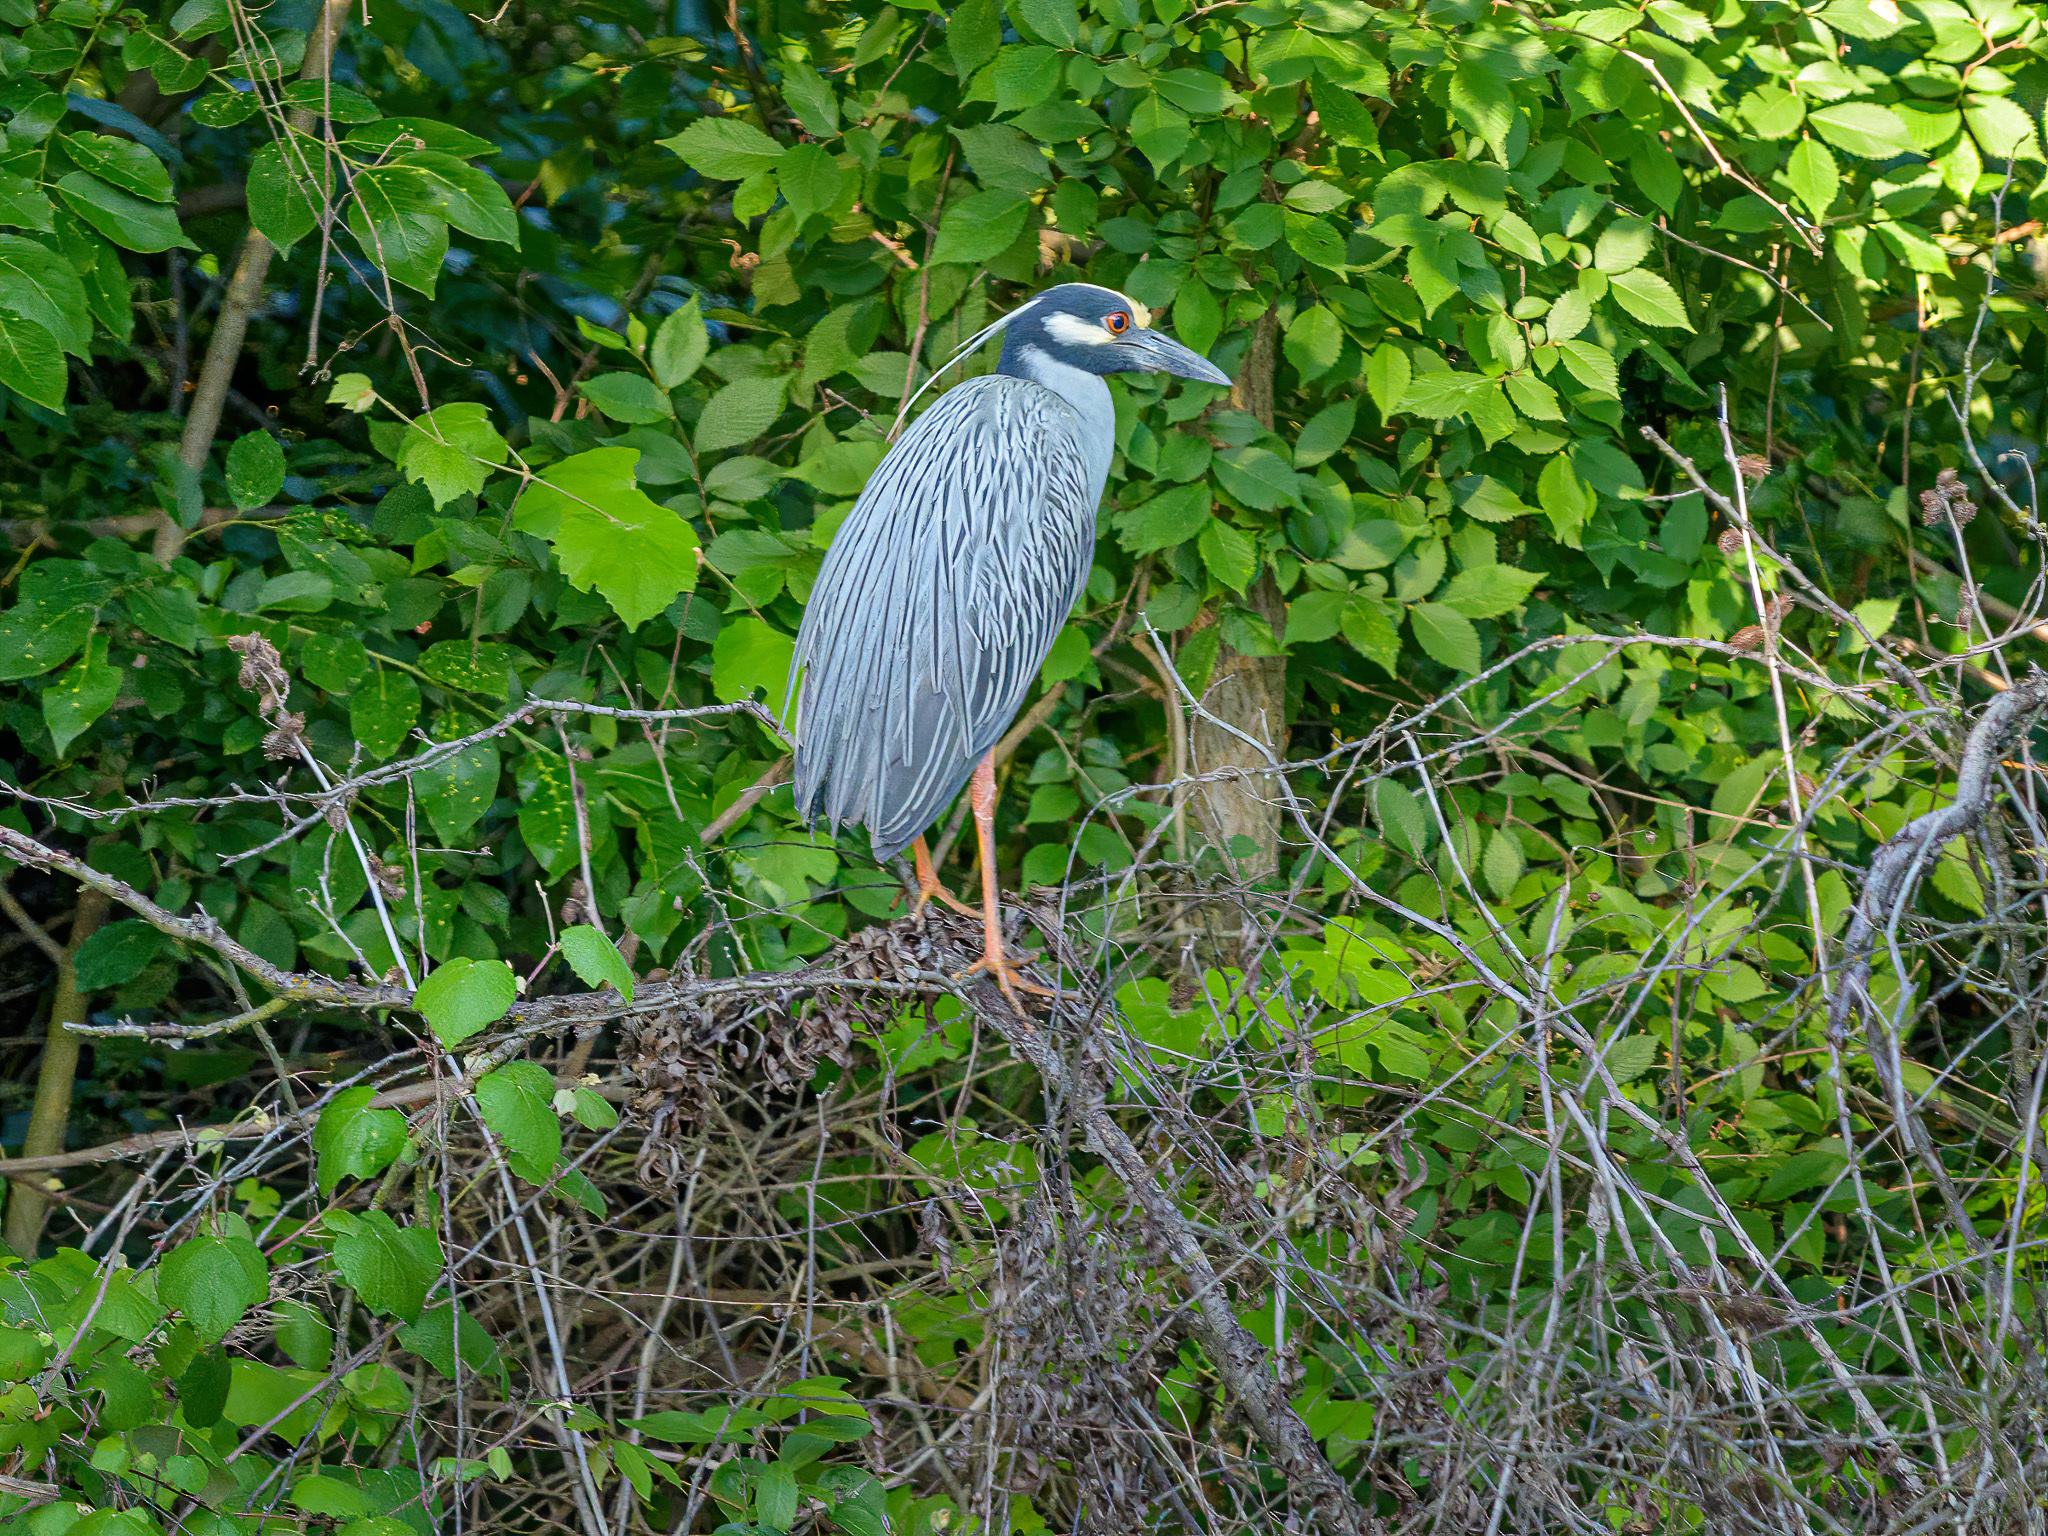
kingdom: Animalia
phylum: Chordata
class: Aves
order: Pelecaniformes
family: Ardeidae
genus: Nyctanassa
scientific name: Nyctanassa violacea
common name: Yellow-crowned night heron
